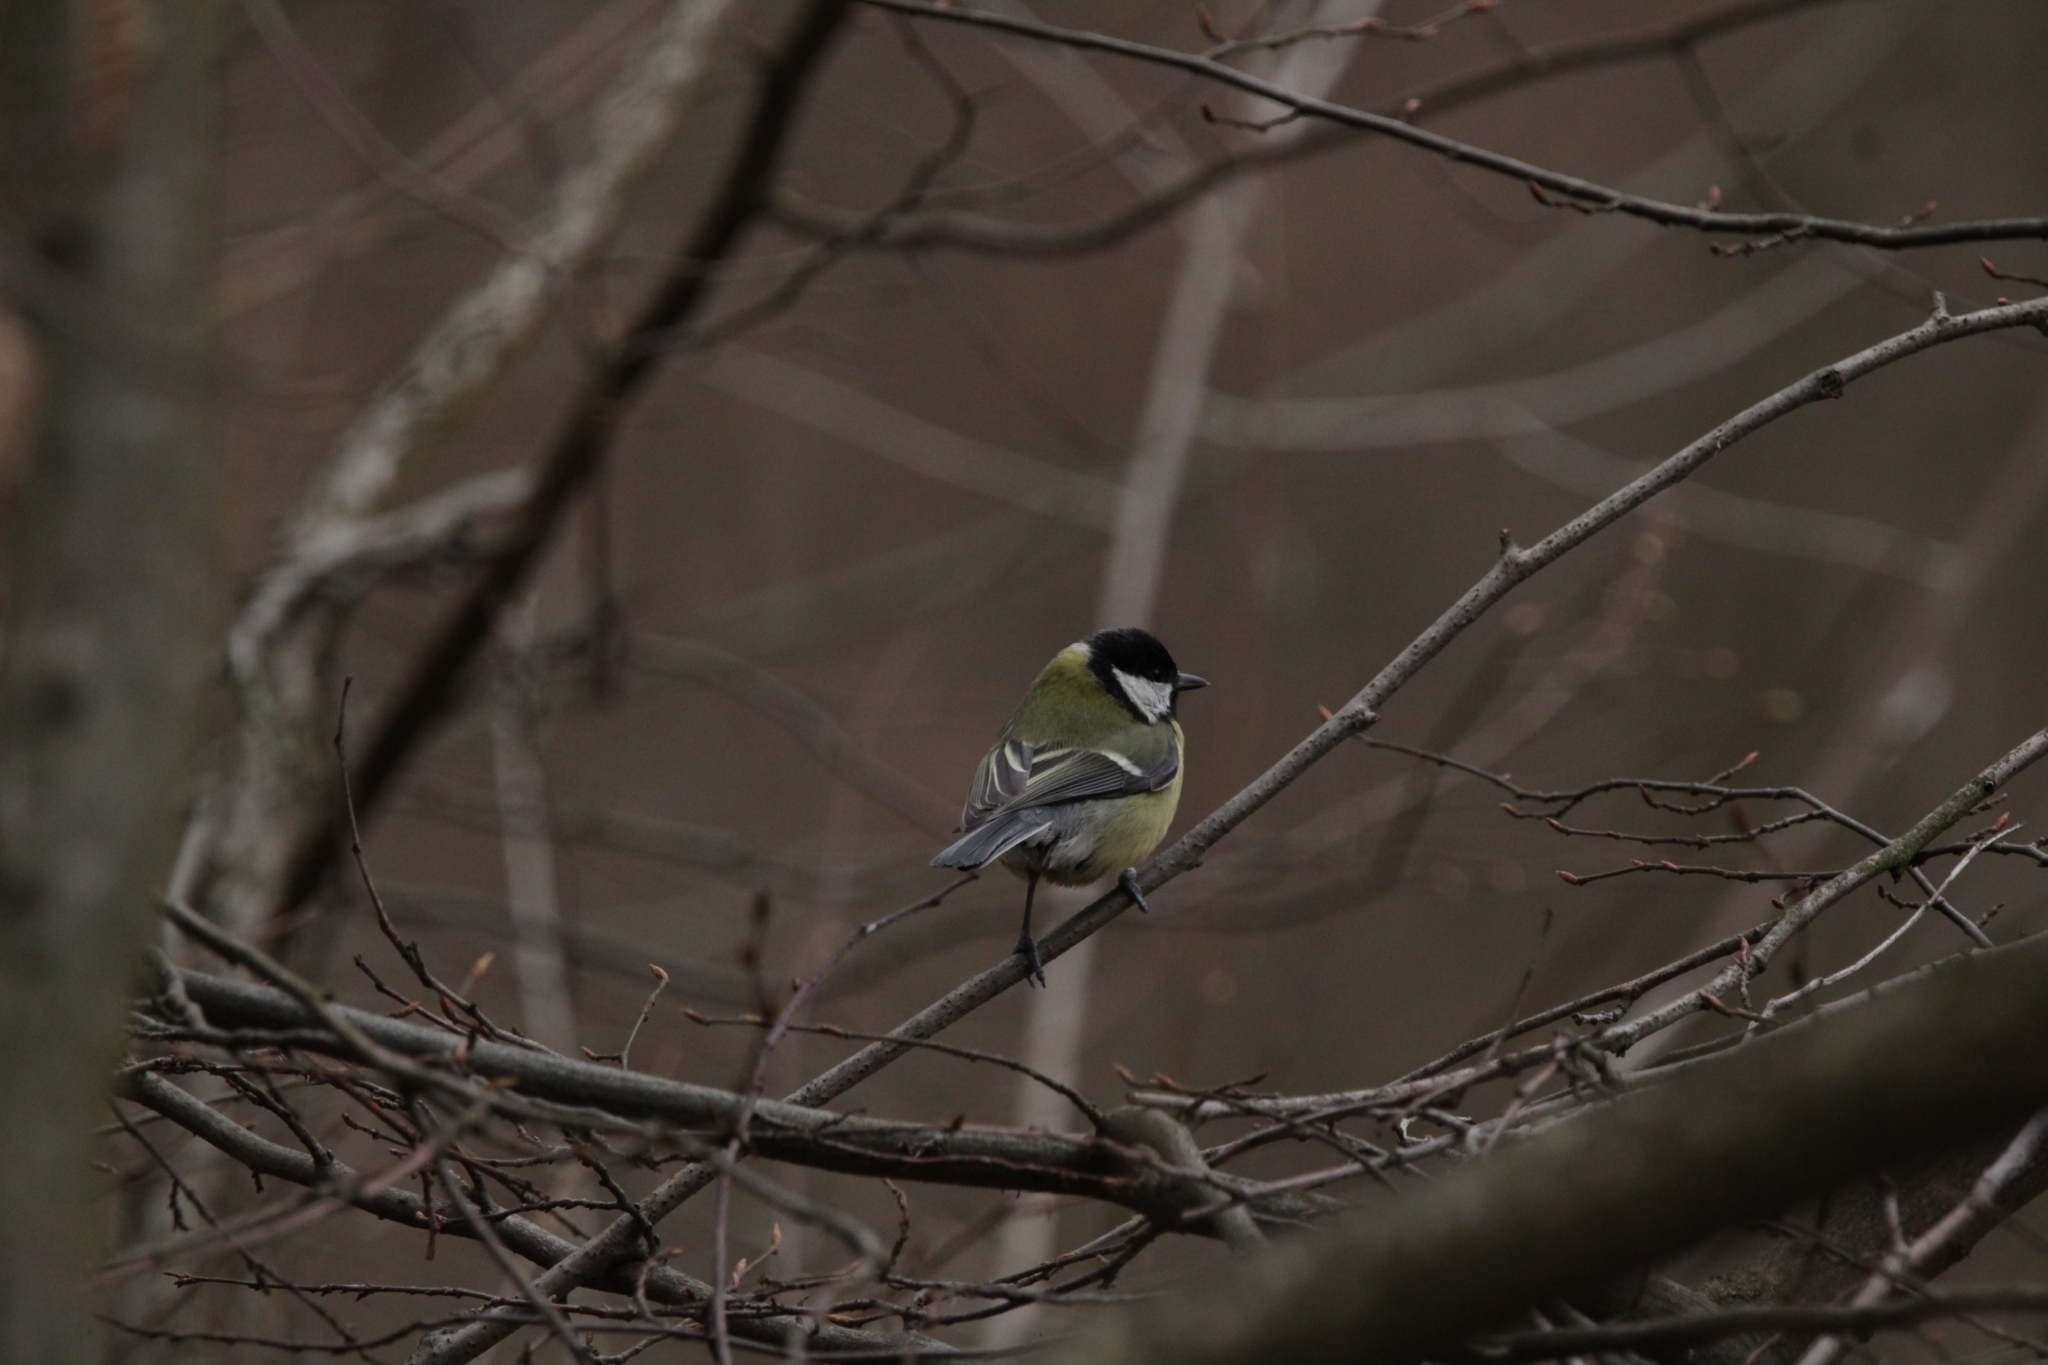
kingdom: Animalia
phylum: Chordata
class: Aves
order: Passeriformes
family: Paridae
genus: Parus
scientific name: Parus major
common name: Great tit
